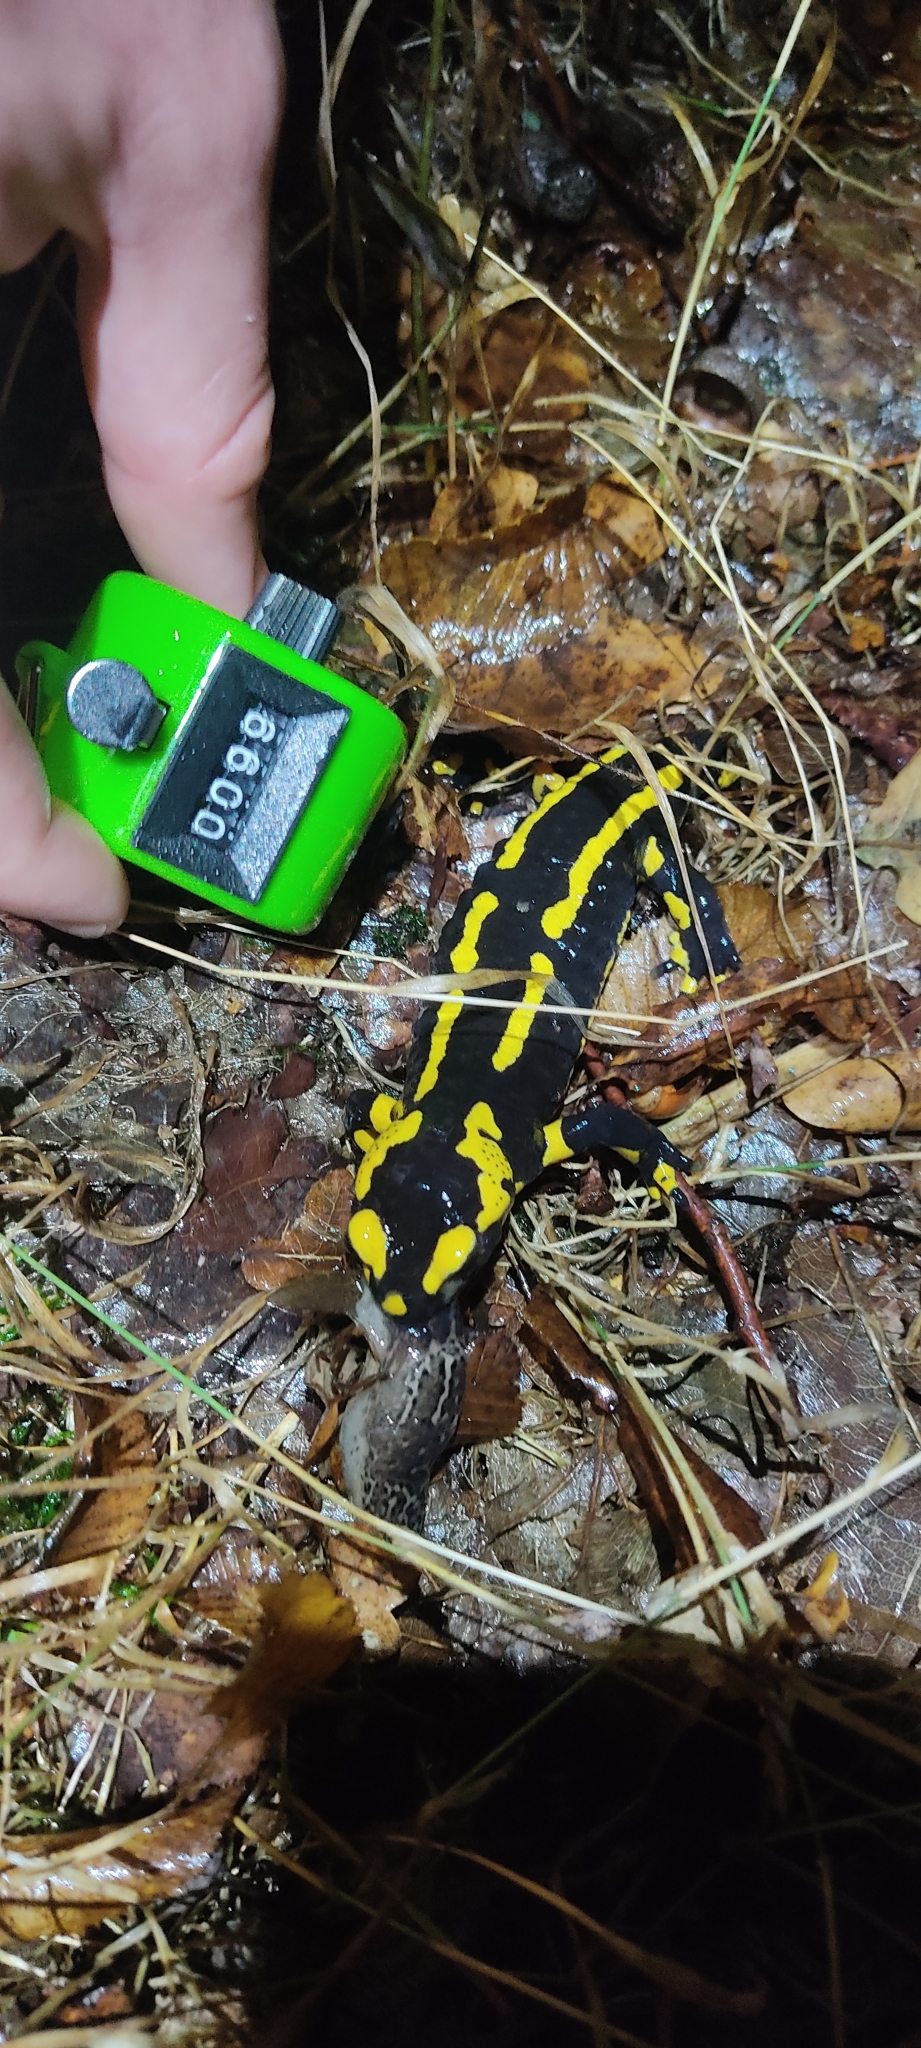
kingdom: Animalia
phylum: Chordata
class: Amphibia
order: Caudata
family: Salamandridae
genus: Salamandra
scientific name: Salamandra salamandra
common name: Fire salamander
